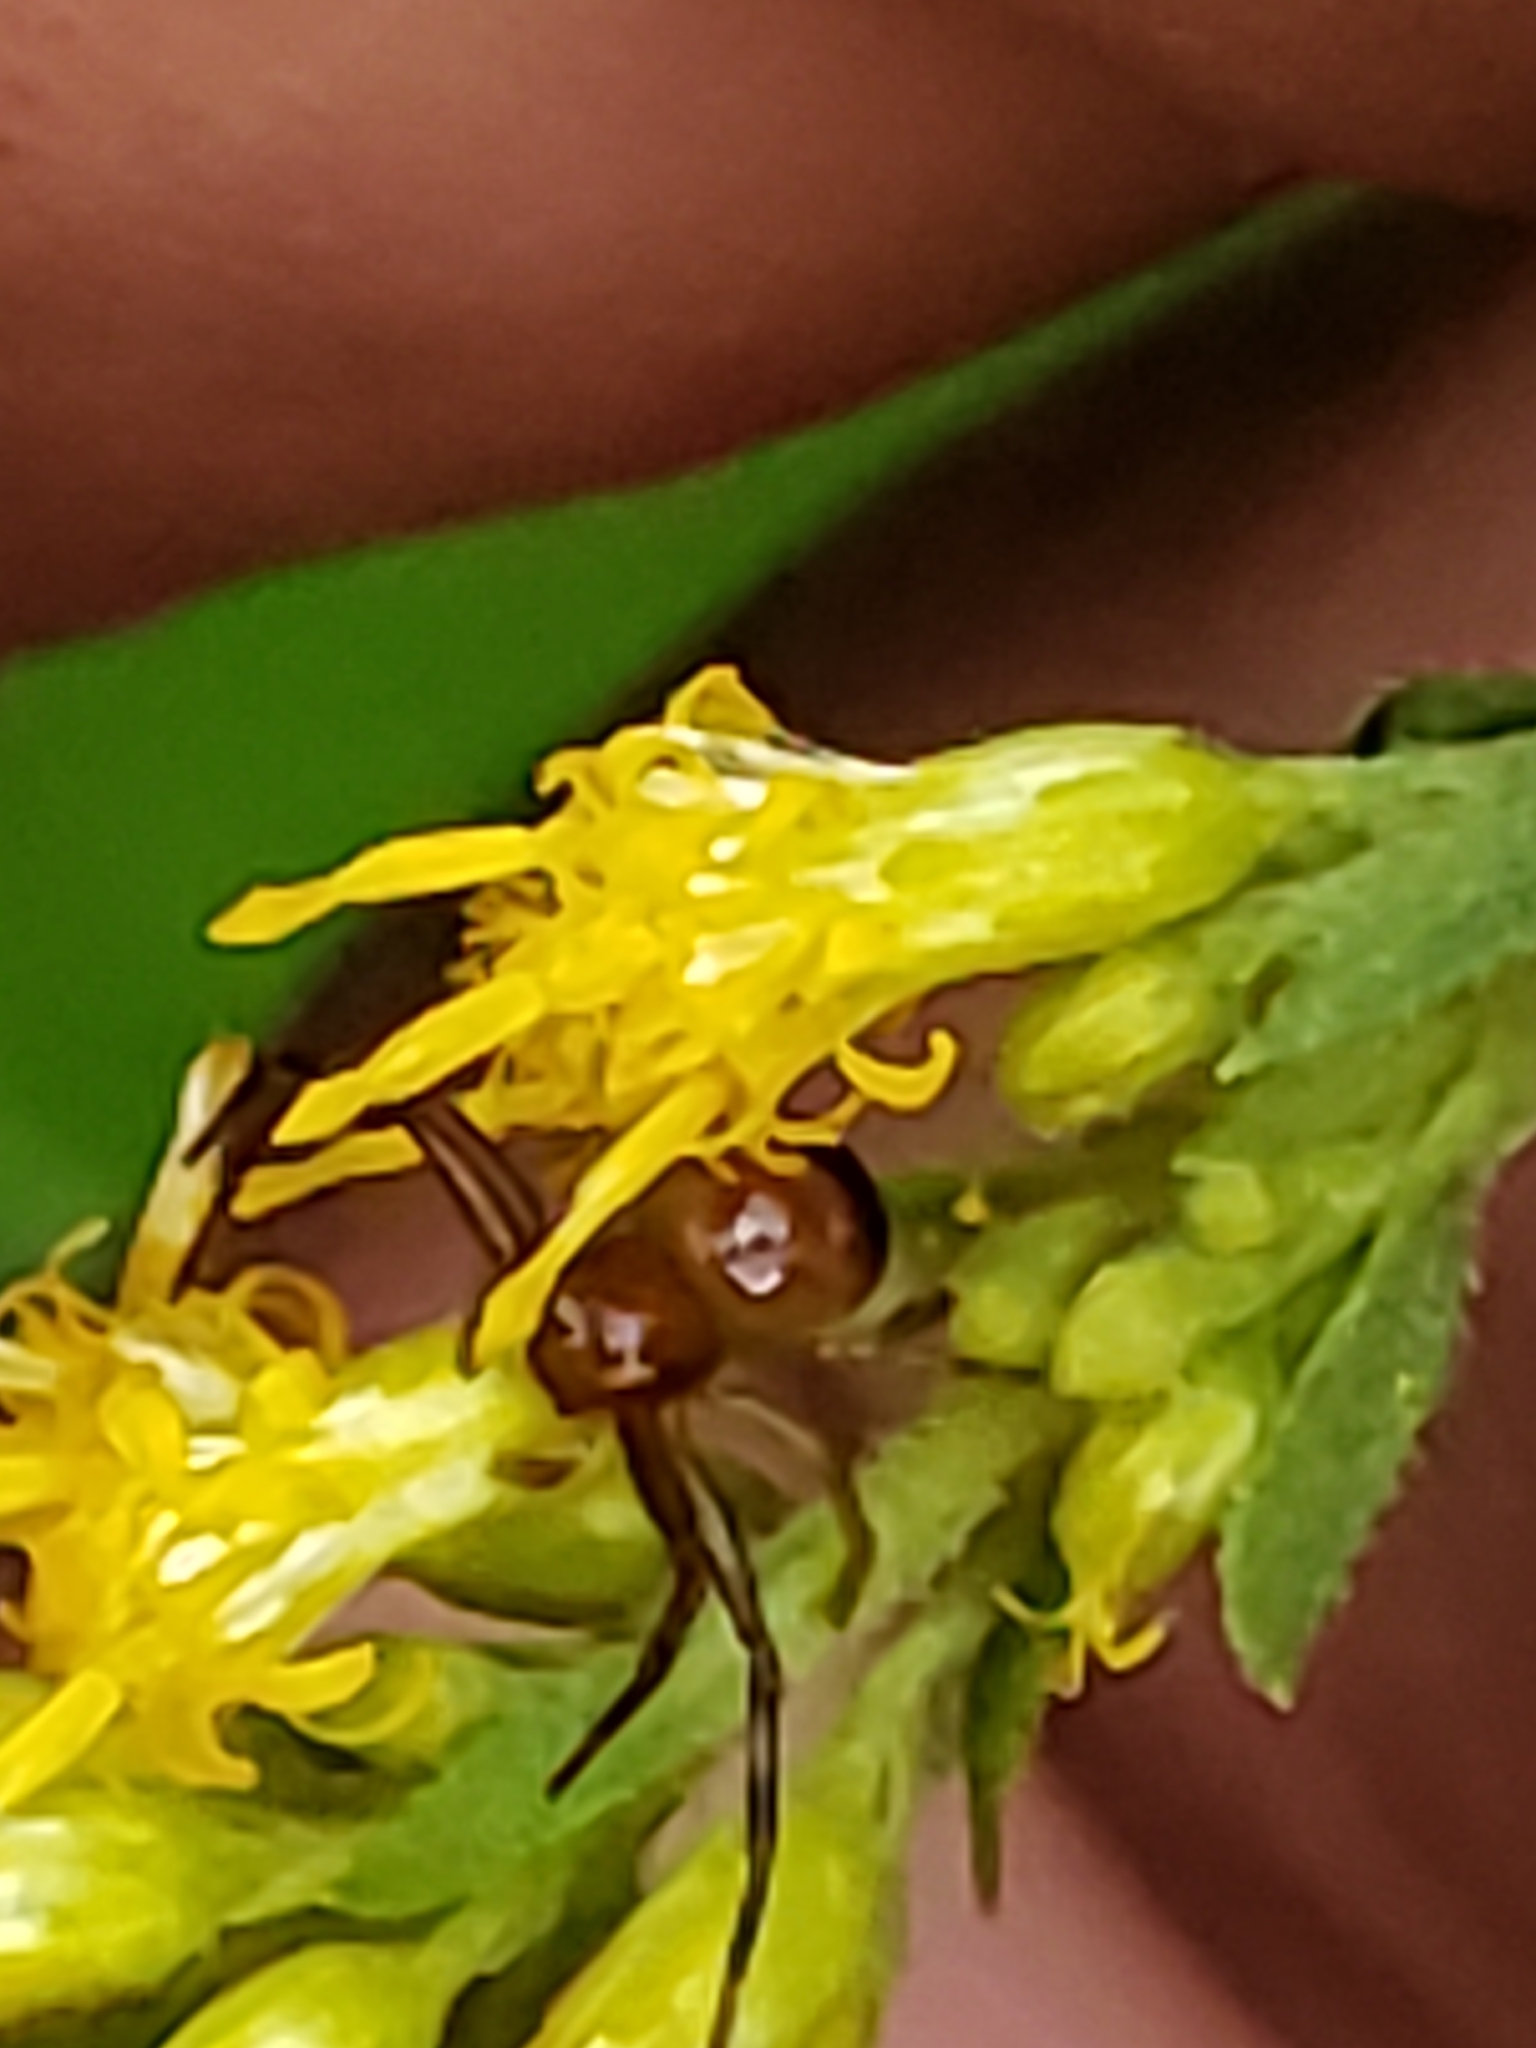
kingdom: Animalia
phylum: Arthropoda
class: Arachnida
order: Araneae
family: Thomisidae
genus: Synema
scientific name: Synema parvulum
